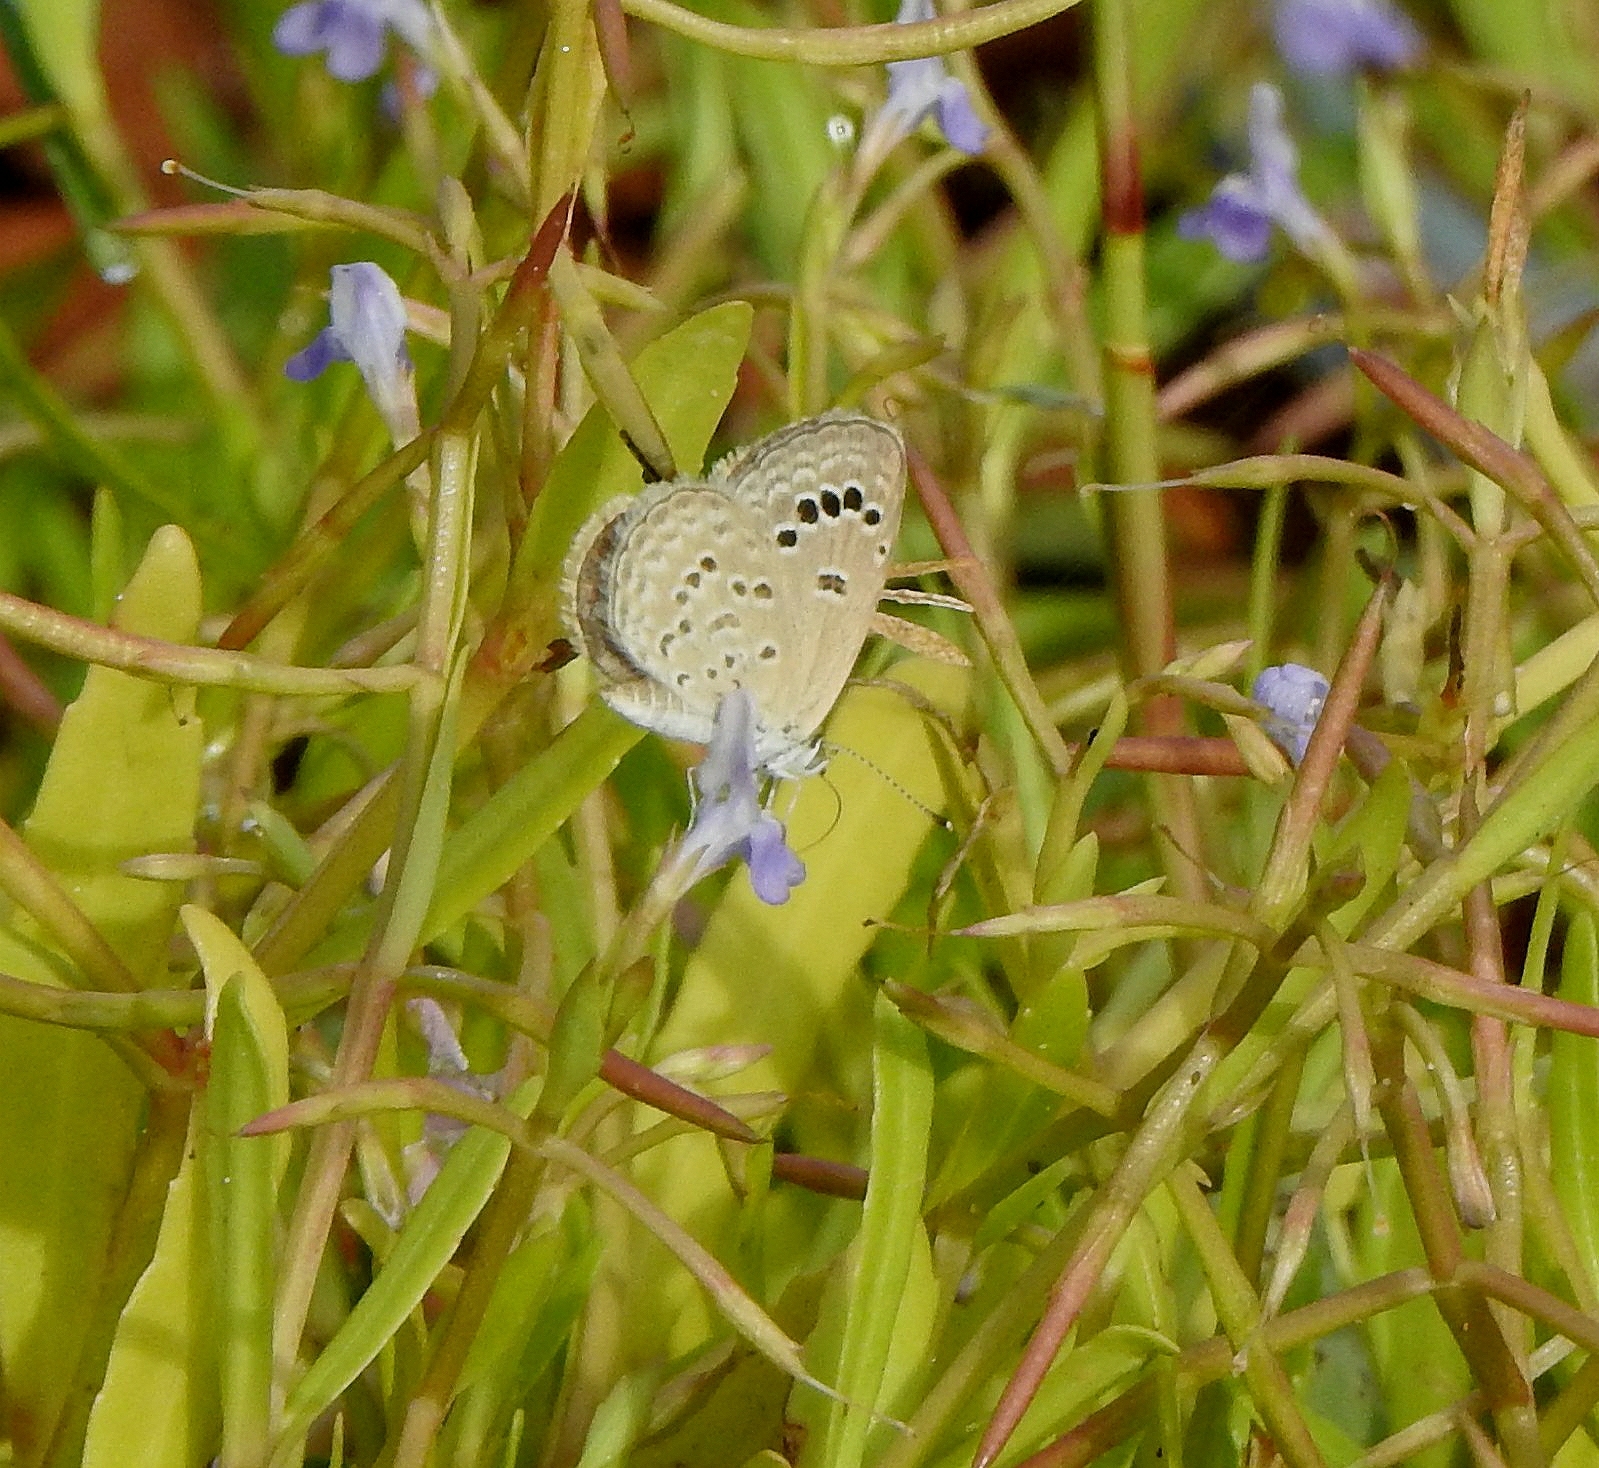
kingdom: Animalia
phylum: Arthropoda
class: Insecta
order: Lepidoptera
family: Lycaenidae
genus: Zizina
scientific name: Zizina otis
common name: Lesser grass blue
